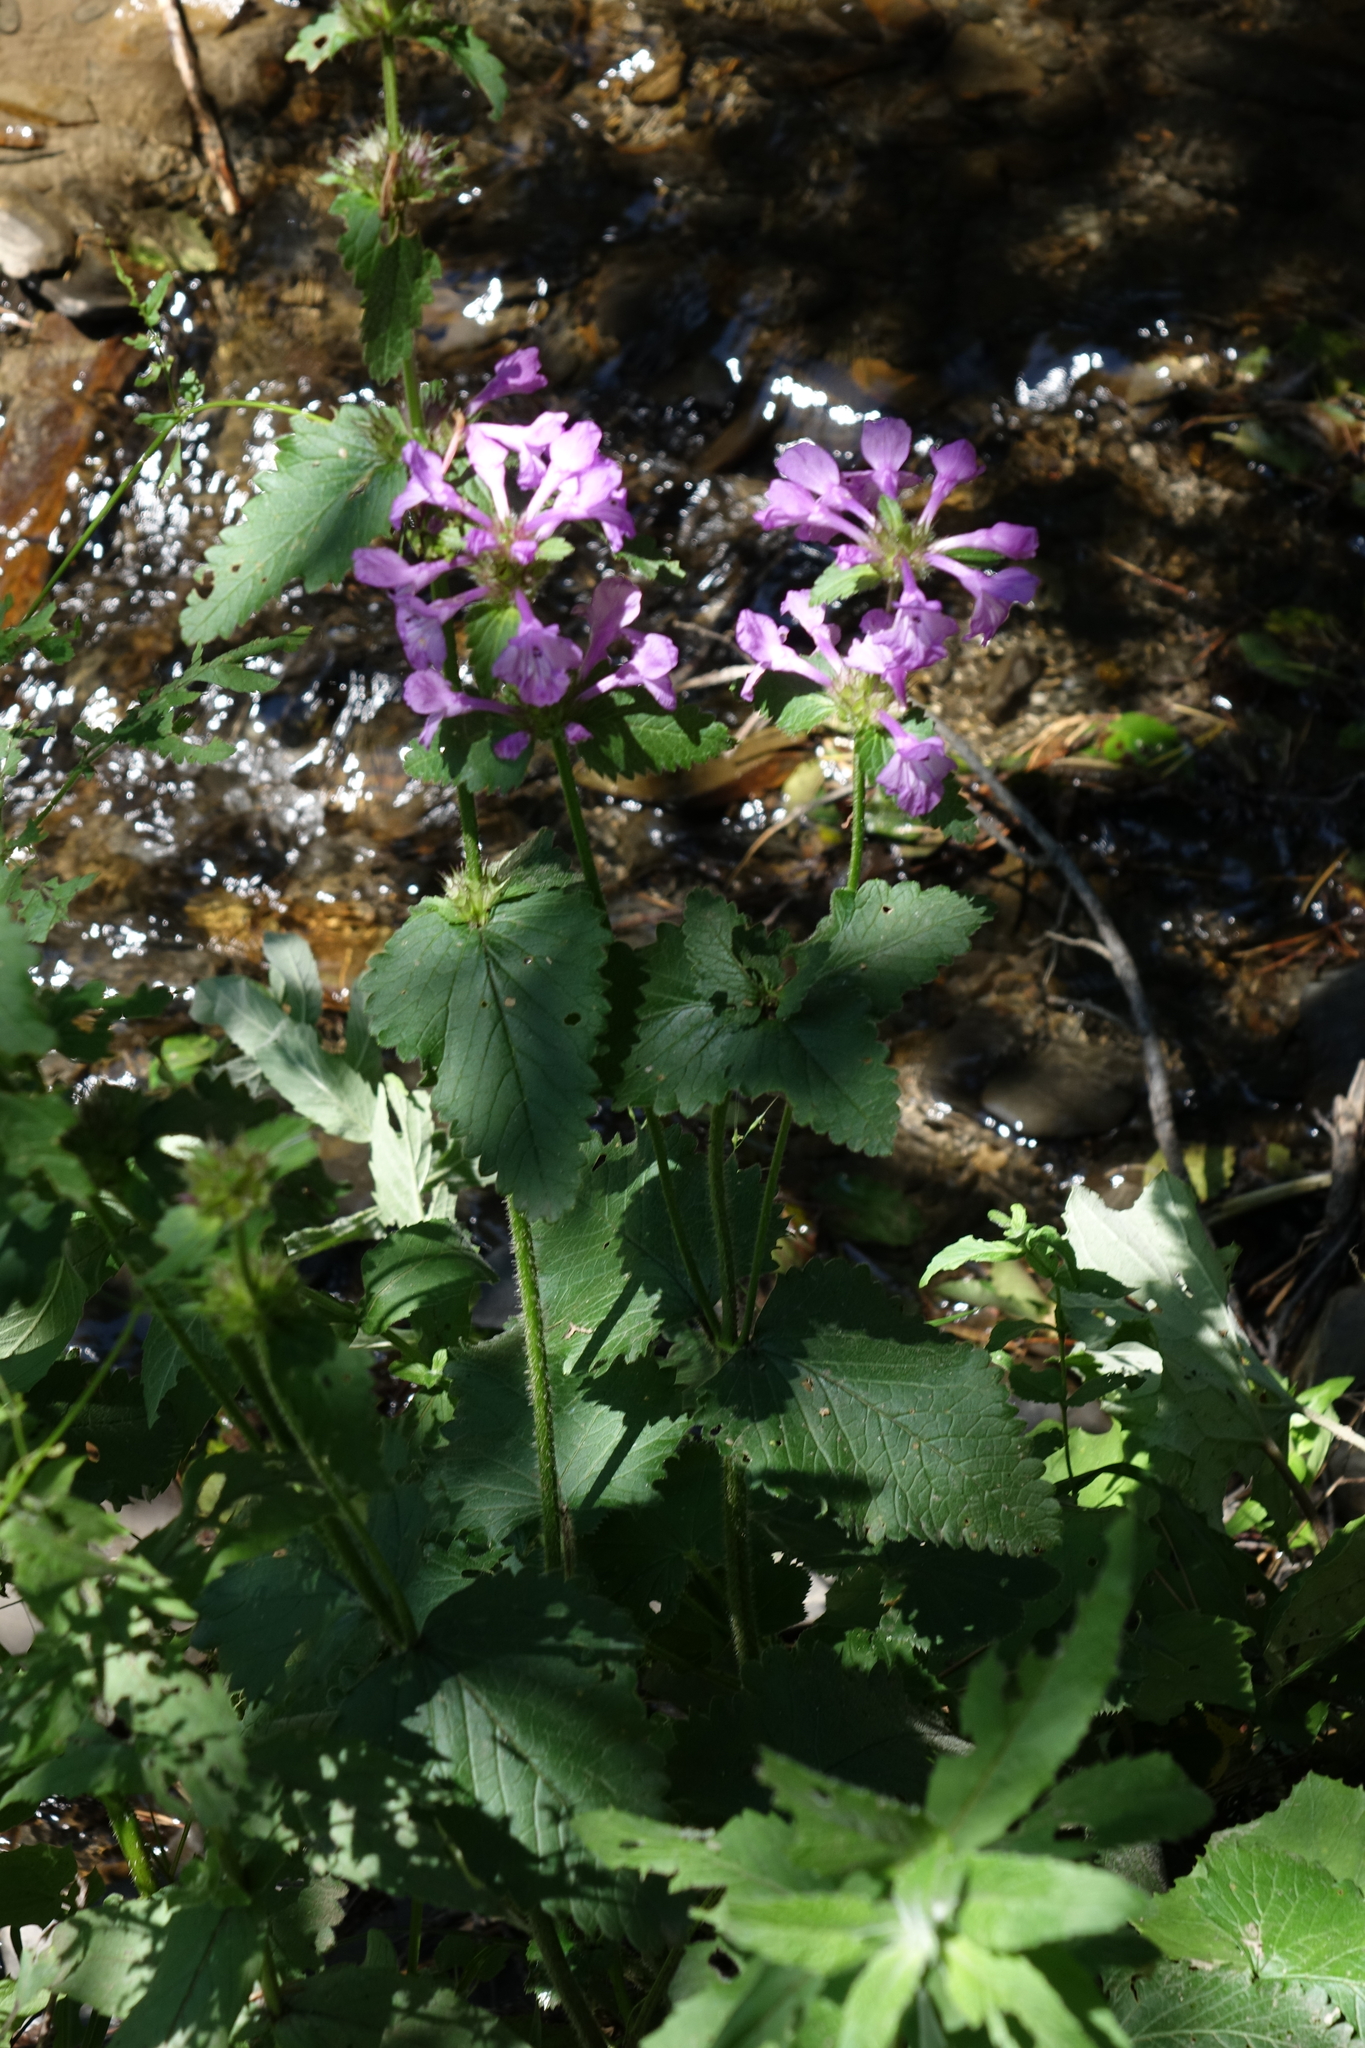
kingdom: Plantae
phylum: Tracheophyta
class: Magnoliopsida
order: Lamiales
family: Lamiaceae
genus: Betonica
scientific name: Betonica macrantha
